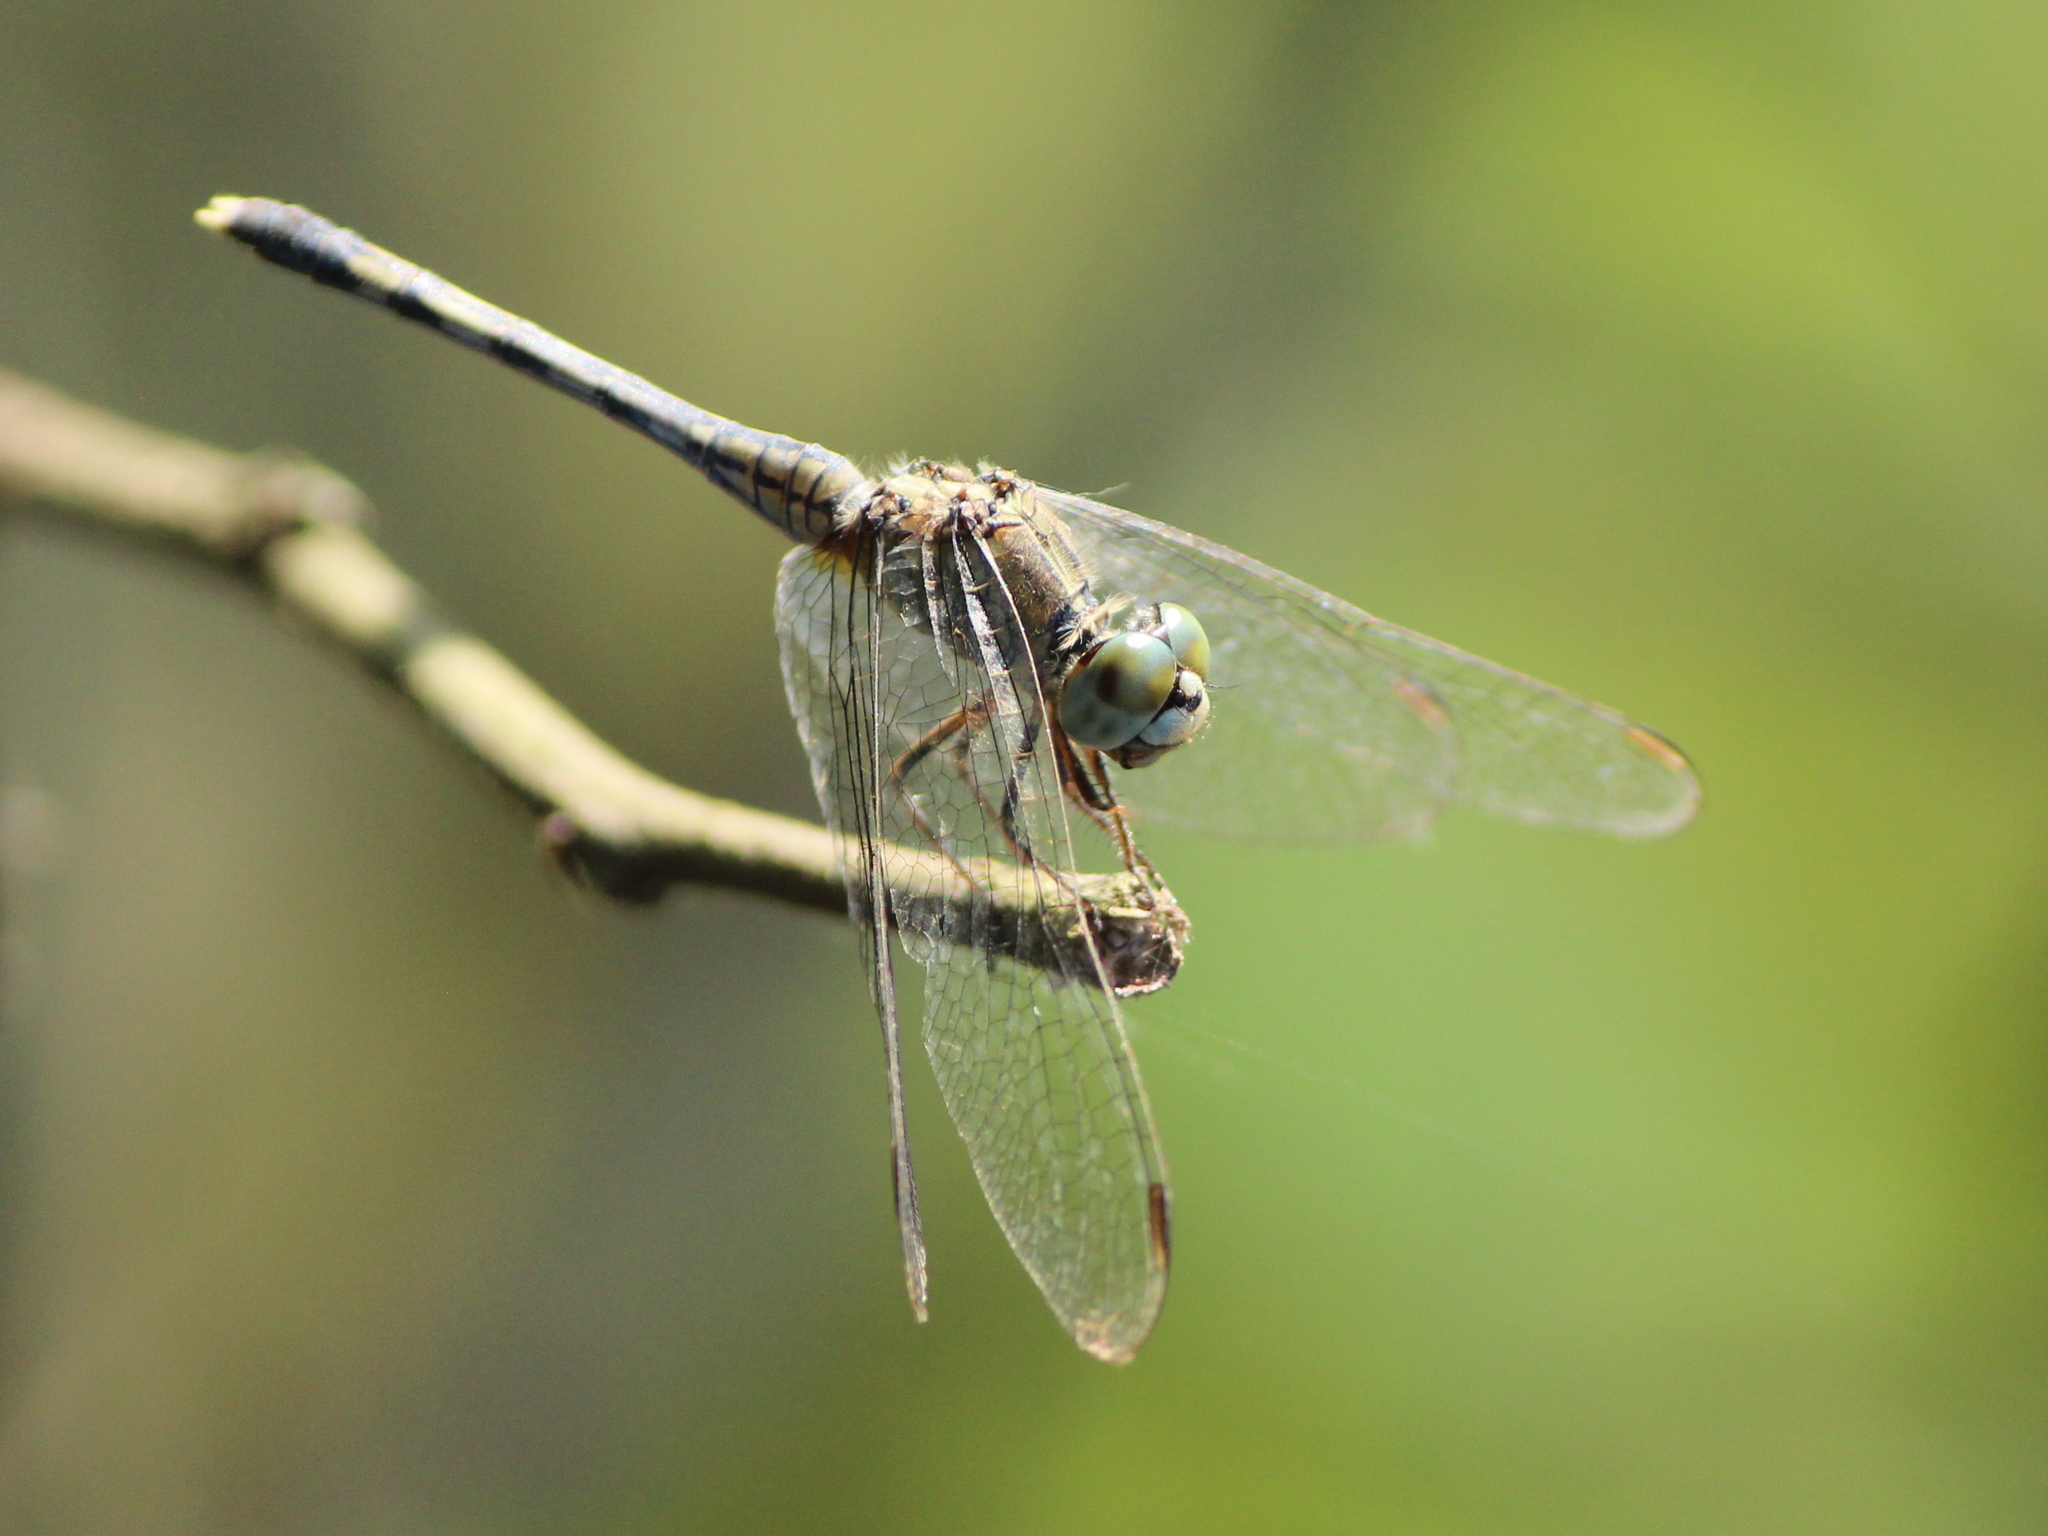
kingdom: Animalia
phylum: Arthropoda
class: Insecta
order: Odonata
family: Libellulidae
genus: Diplacodes
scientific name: Diplacodes trivialis
